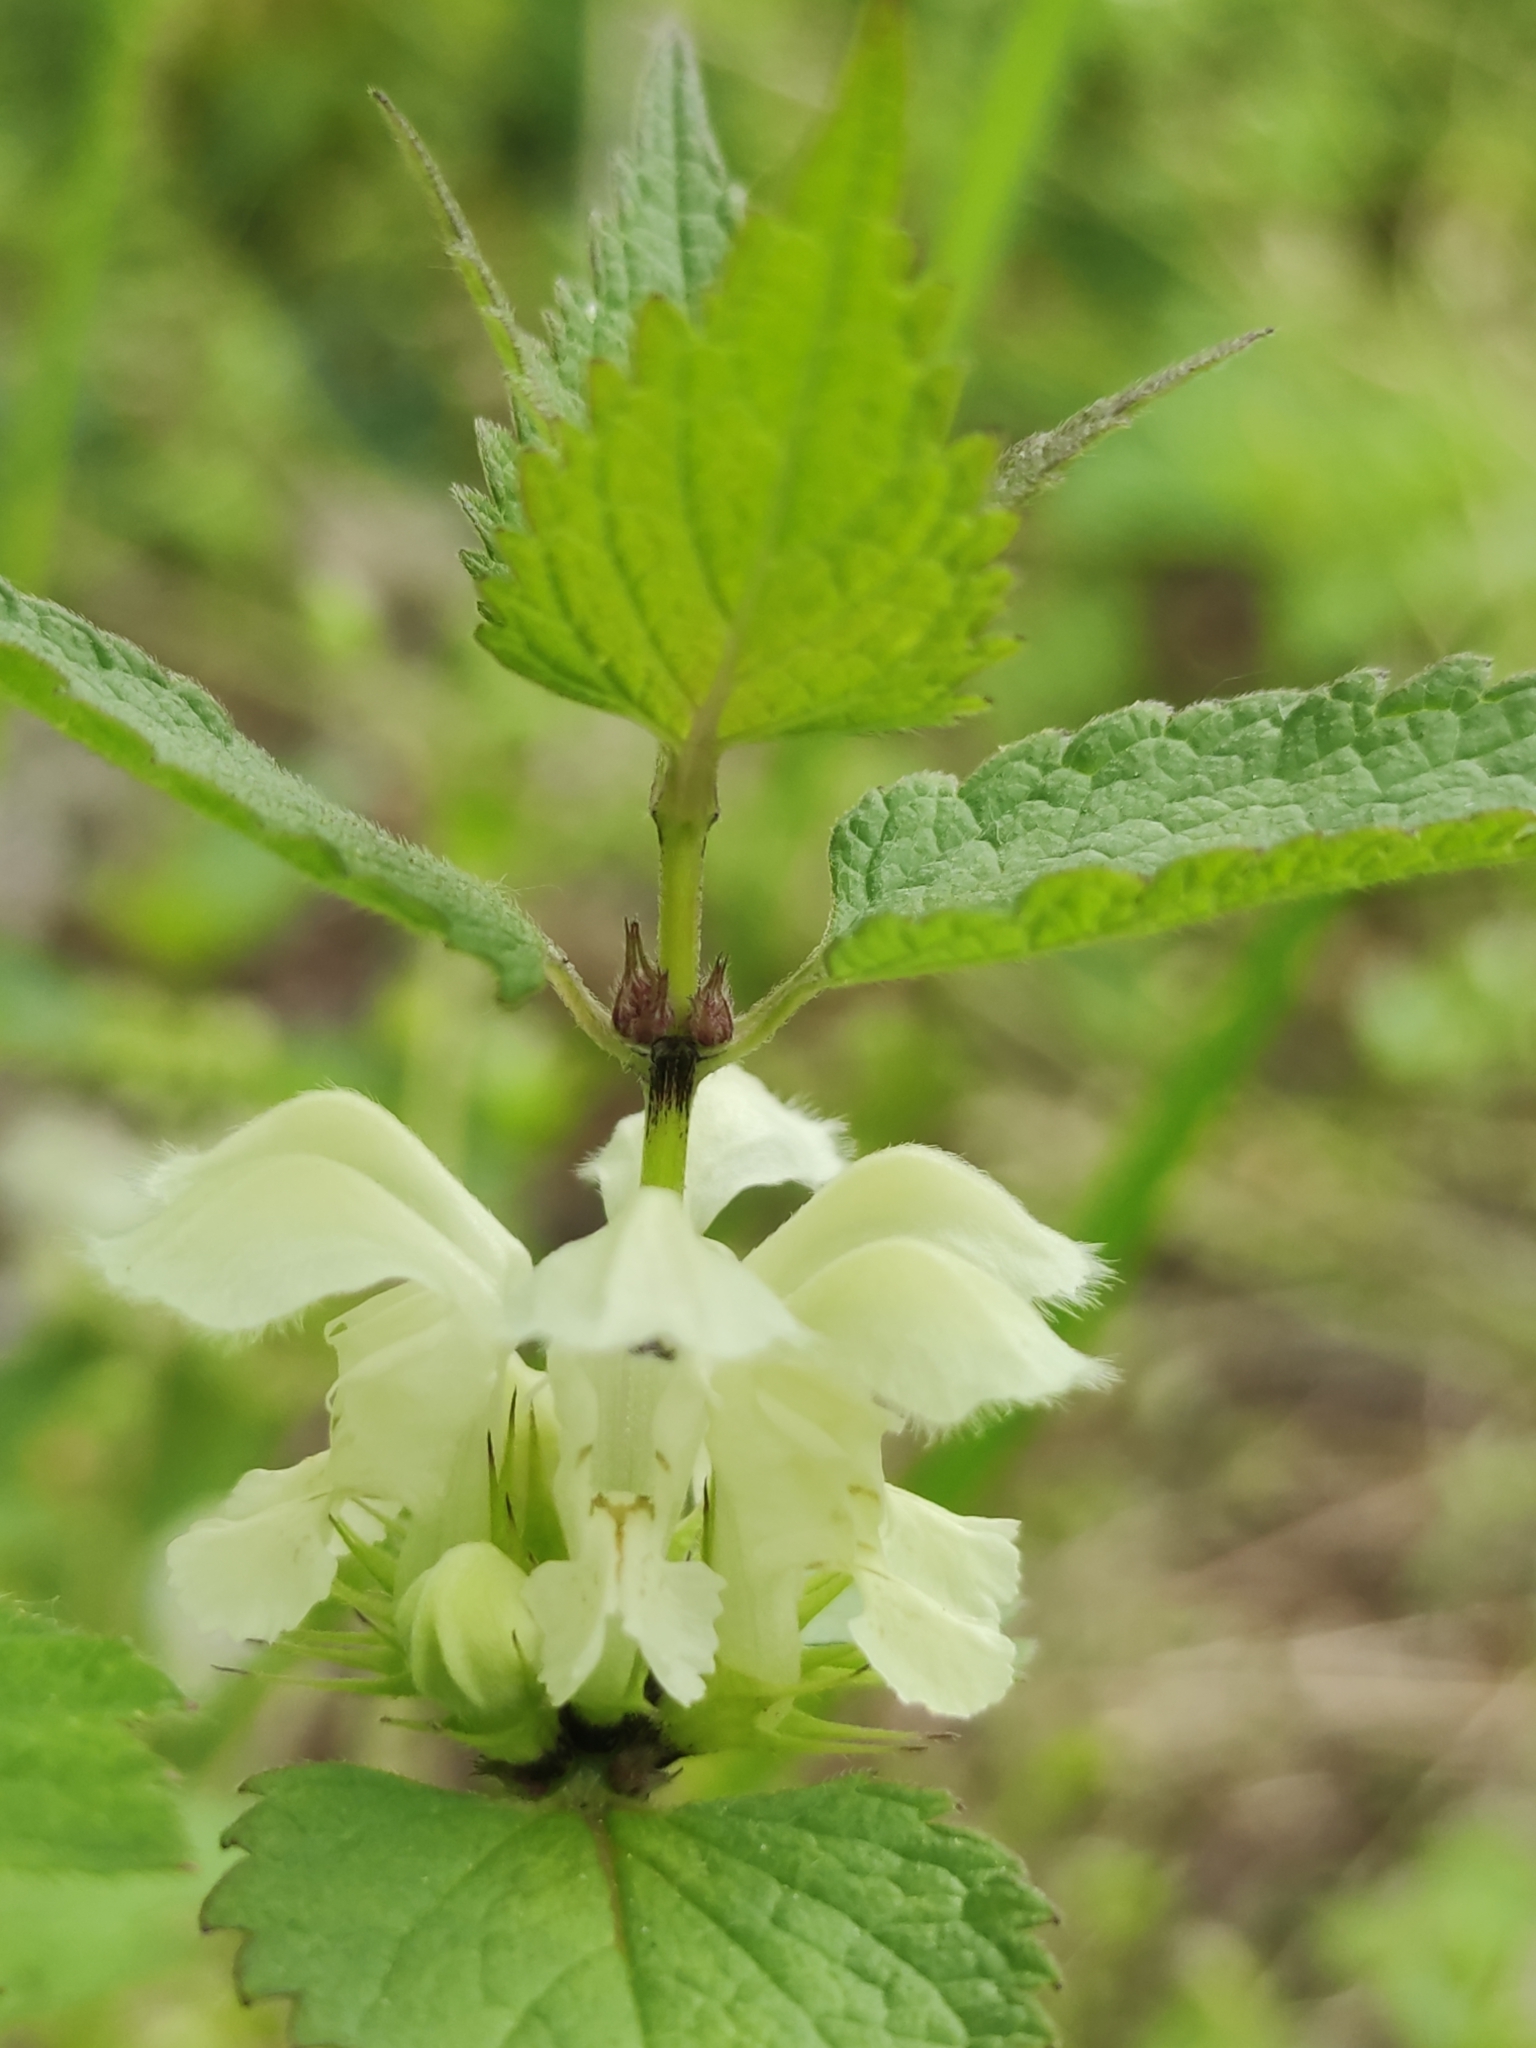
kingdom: Plantae
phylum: Tracheophyta
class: Magnoliopsida
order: Lamiales
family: Lamiaceae
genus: Lamium
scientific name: Lamium album
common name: White dead-nettle
